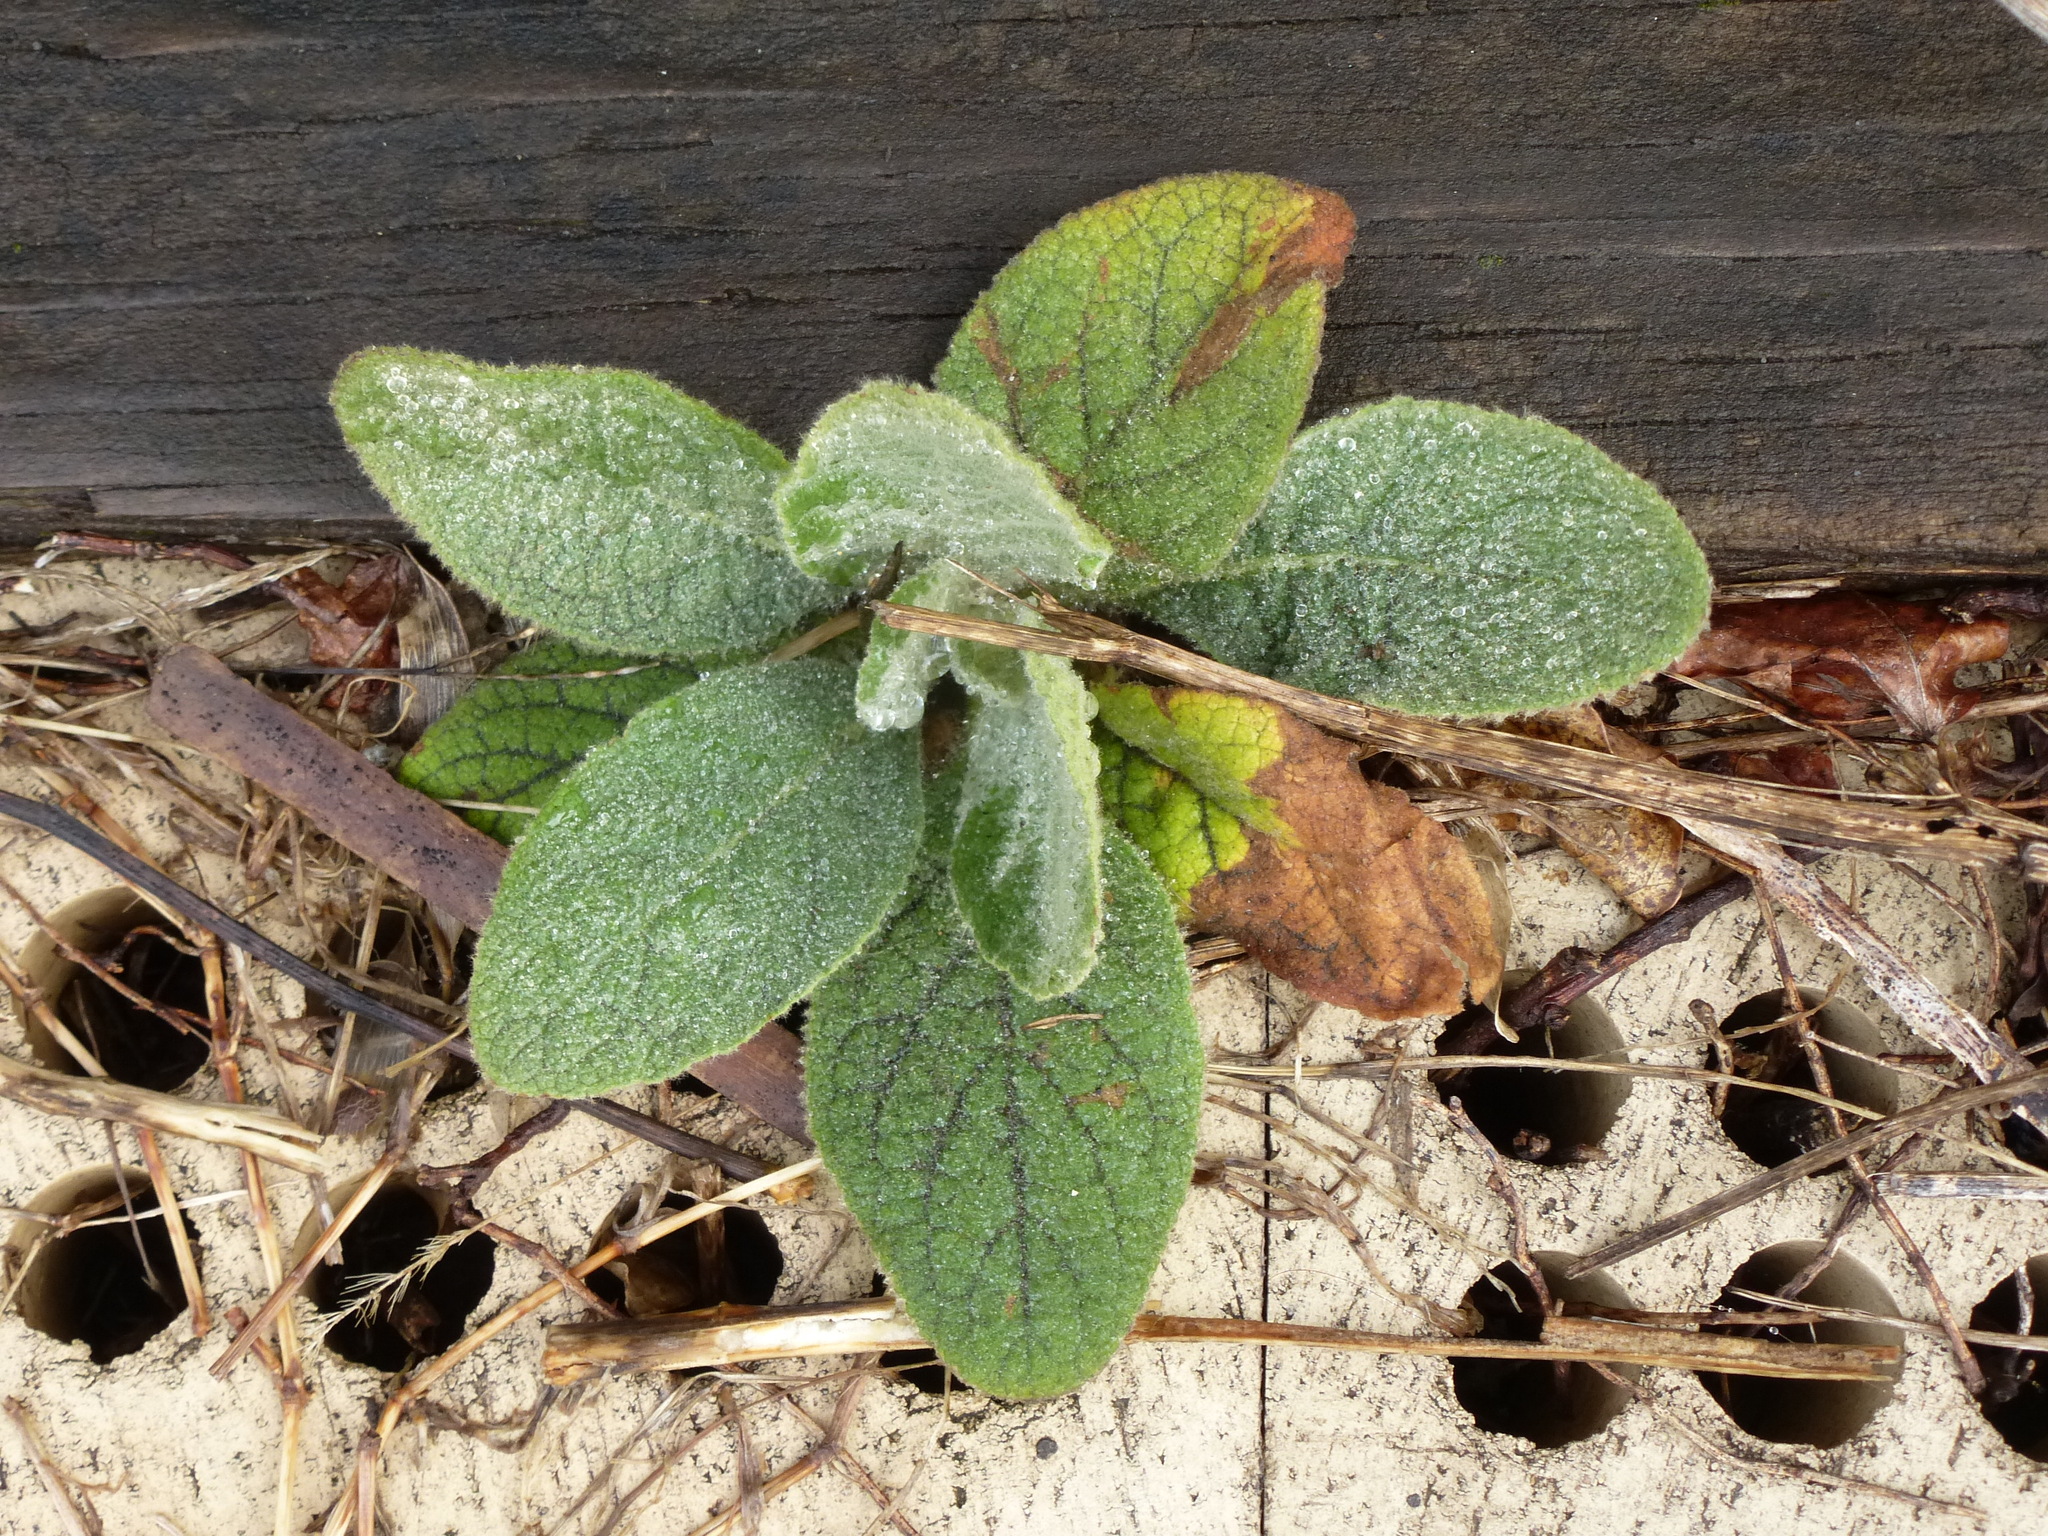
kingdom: Plantae
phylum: Tracheophyta
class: Magnoliopsida
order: Lamiales
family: Scrophulariaceae
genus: Verbascum
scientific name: Verbascum thapsus
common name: Common mullein
